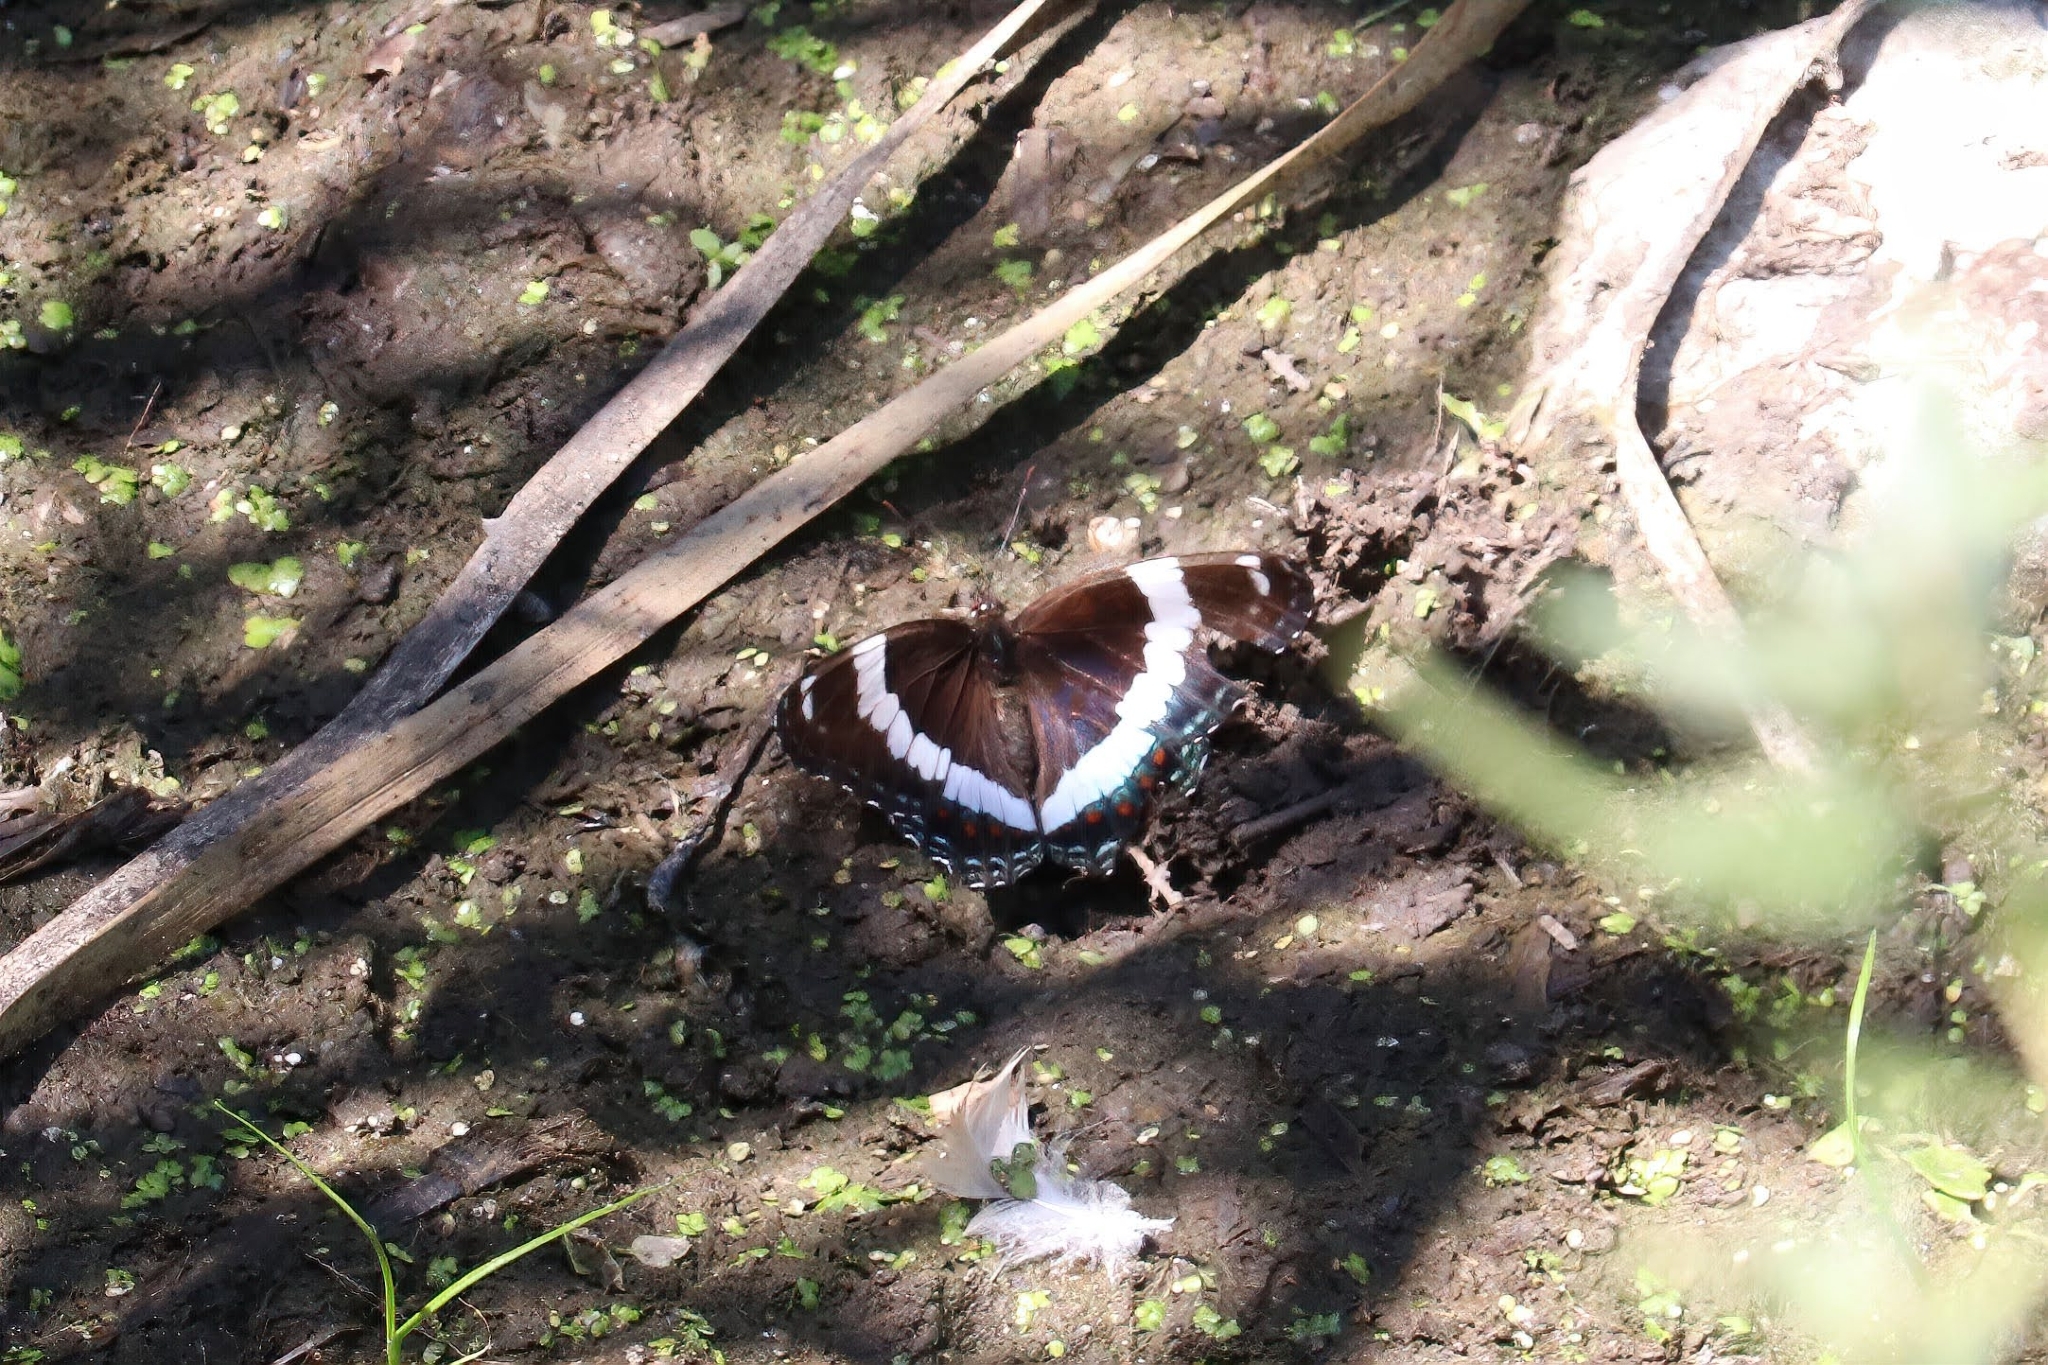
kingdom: Animalia
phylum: Arthropoda
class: Insecta
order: Lepidoptera
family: Nymphalidae
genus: Limenitis
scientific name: Limenitis arthemis
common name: Red-spotted admiral
